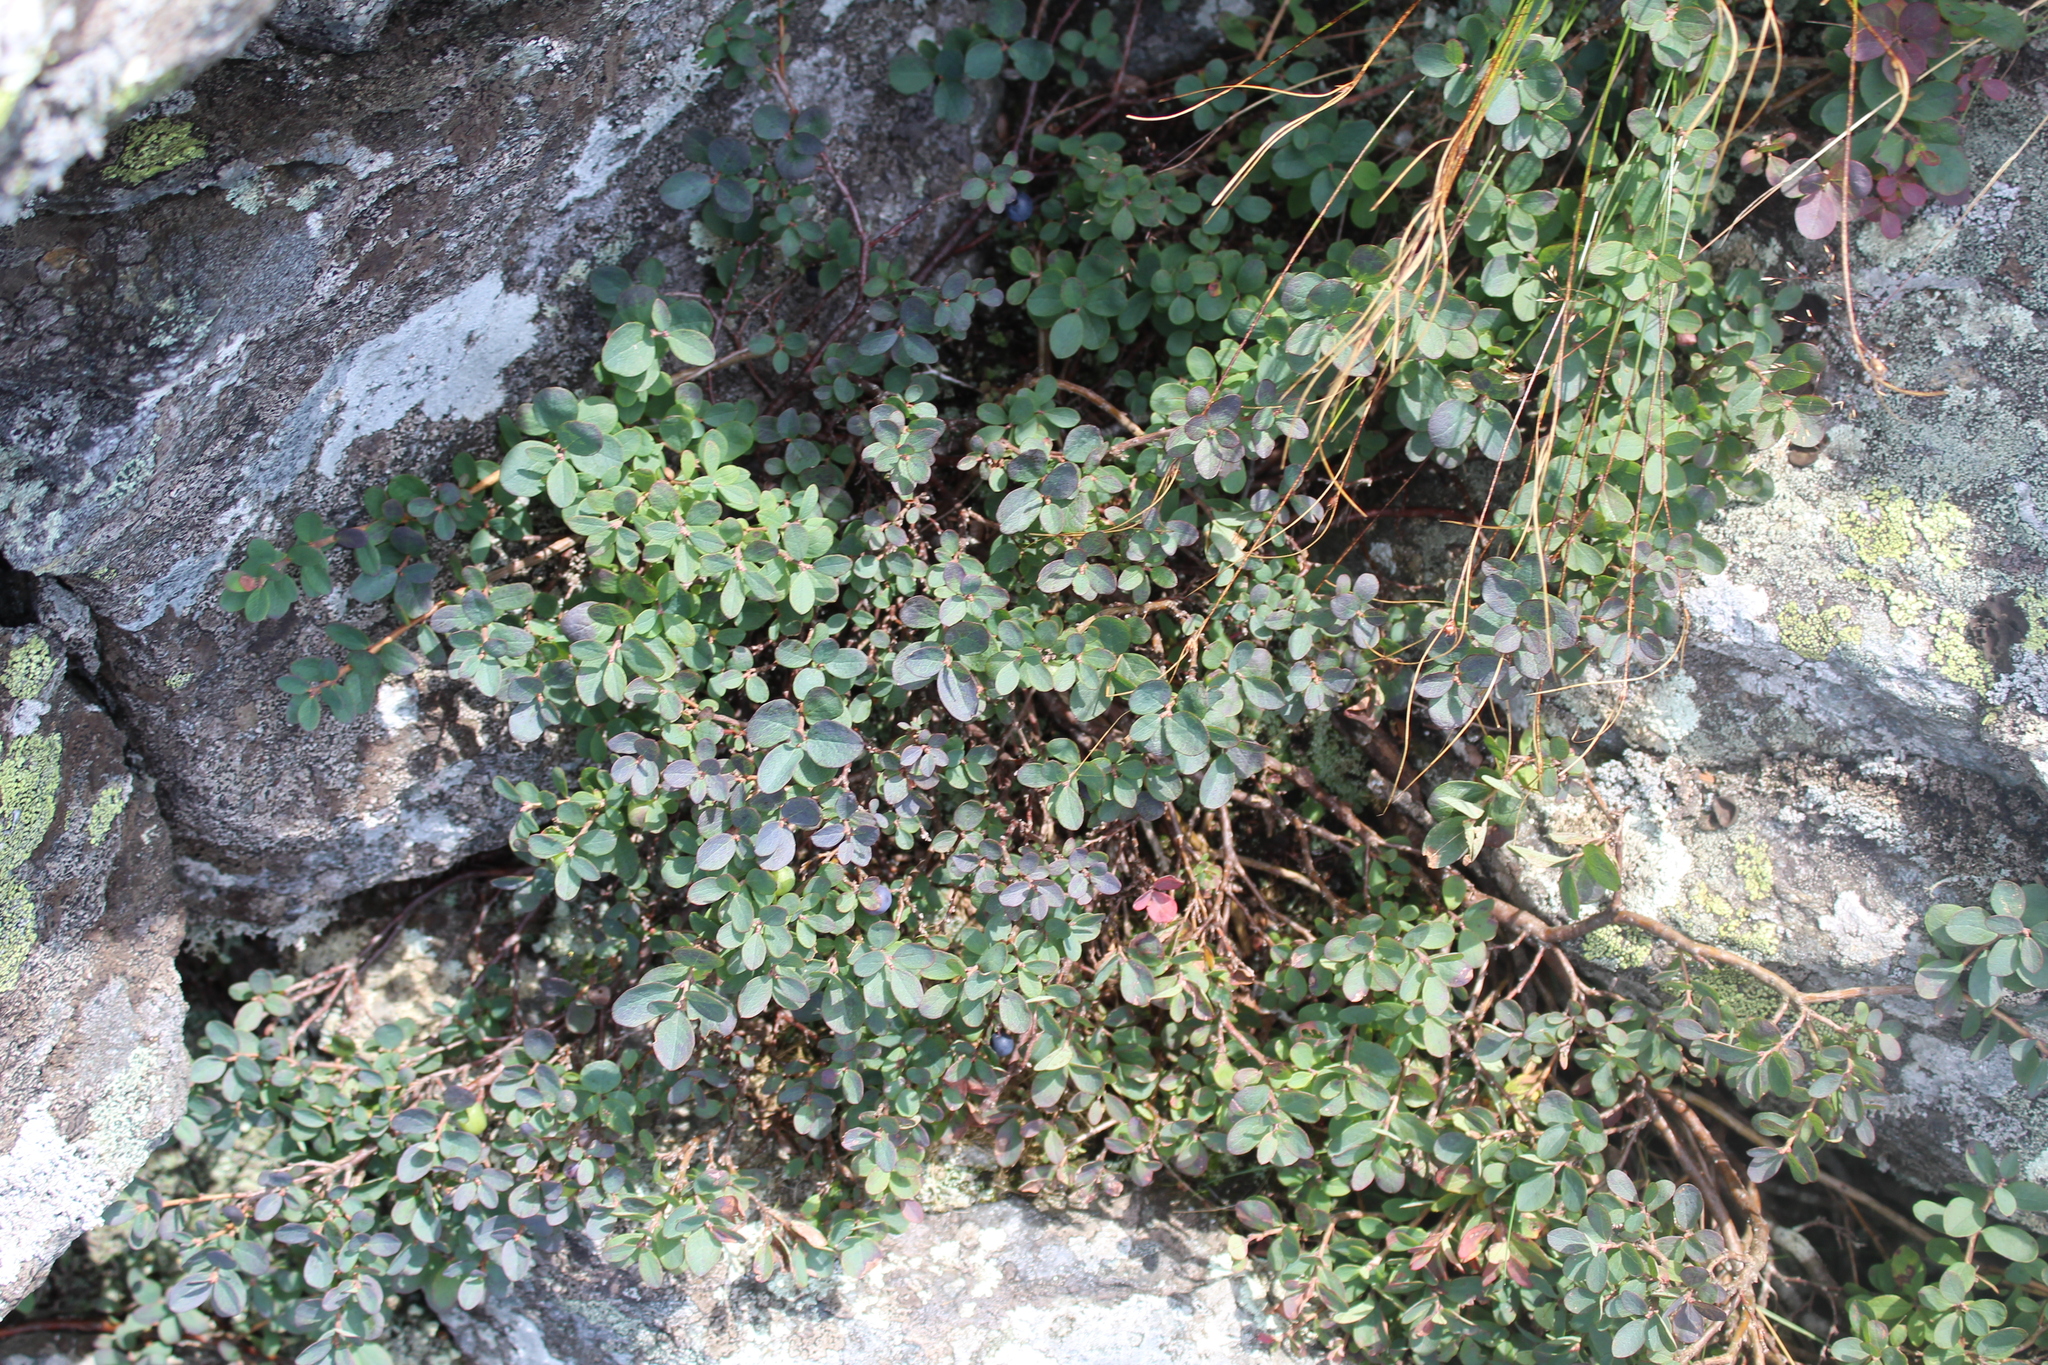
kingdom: Plantae
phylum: Tracheophyta
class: Magnoliopsida
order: Ericales
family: Ericaceae
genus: Vaccinium
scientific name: Vaccinium uliginosum
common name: Bog bilberry
